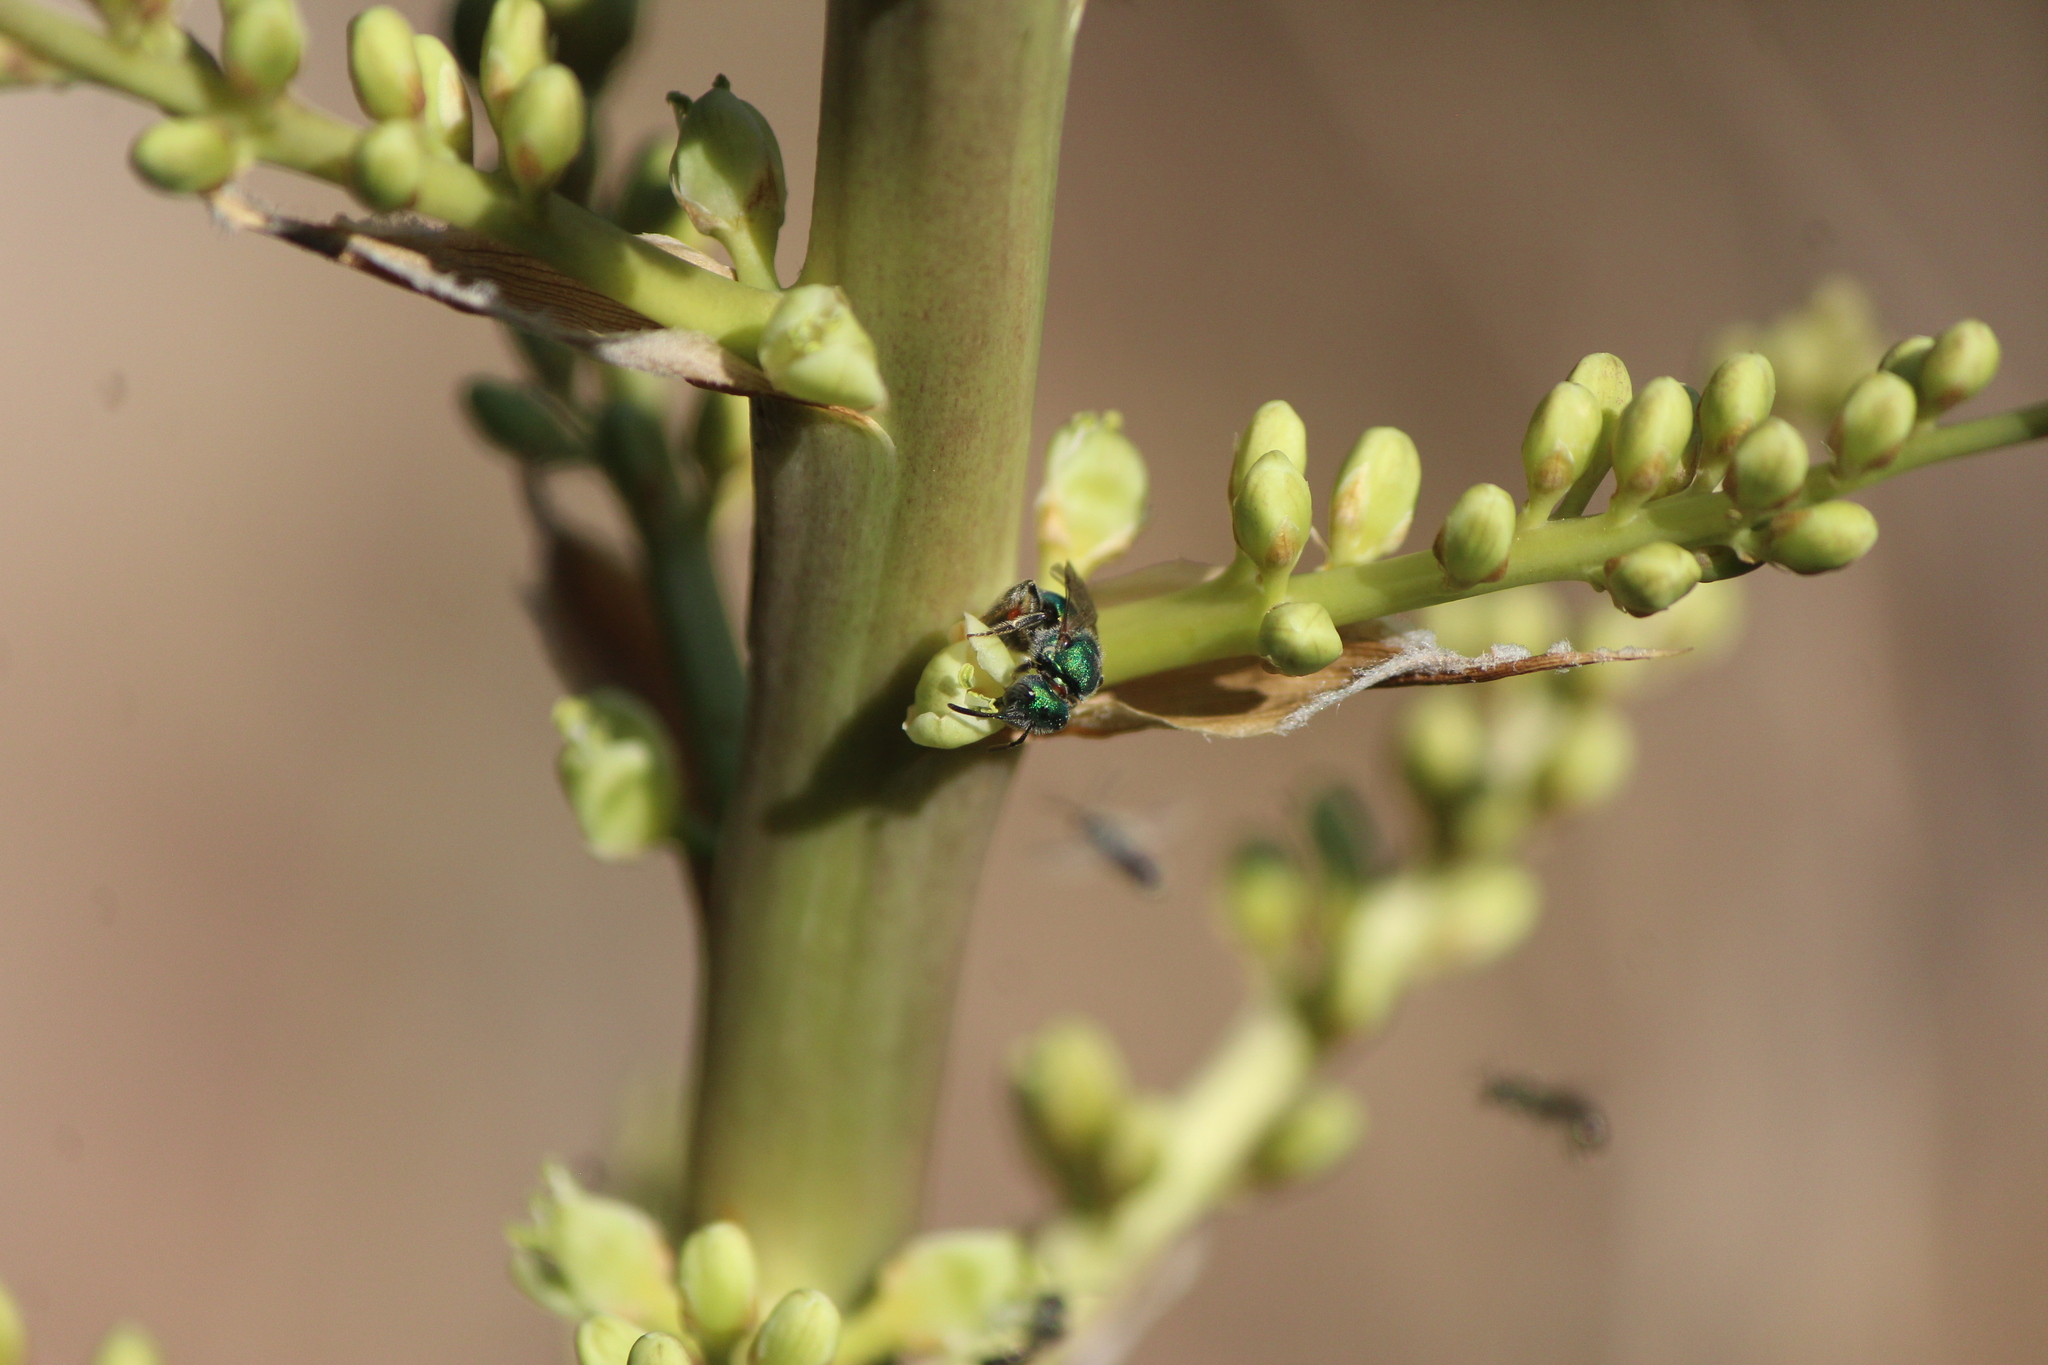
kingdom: Animalia
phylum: Arthropoda
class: Insecta
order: Hymenoptera
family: Halictidae
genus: Augochlora
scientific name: Augochlora aurifera
